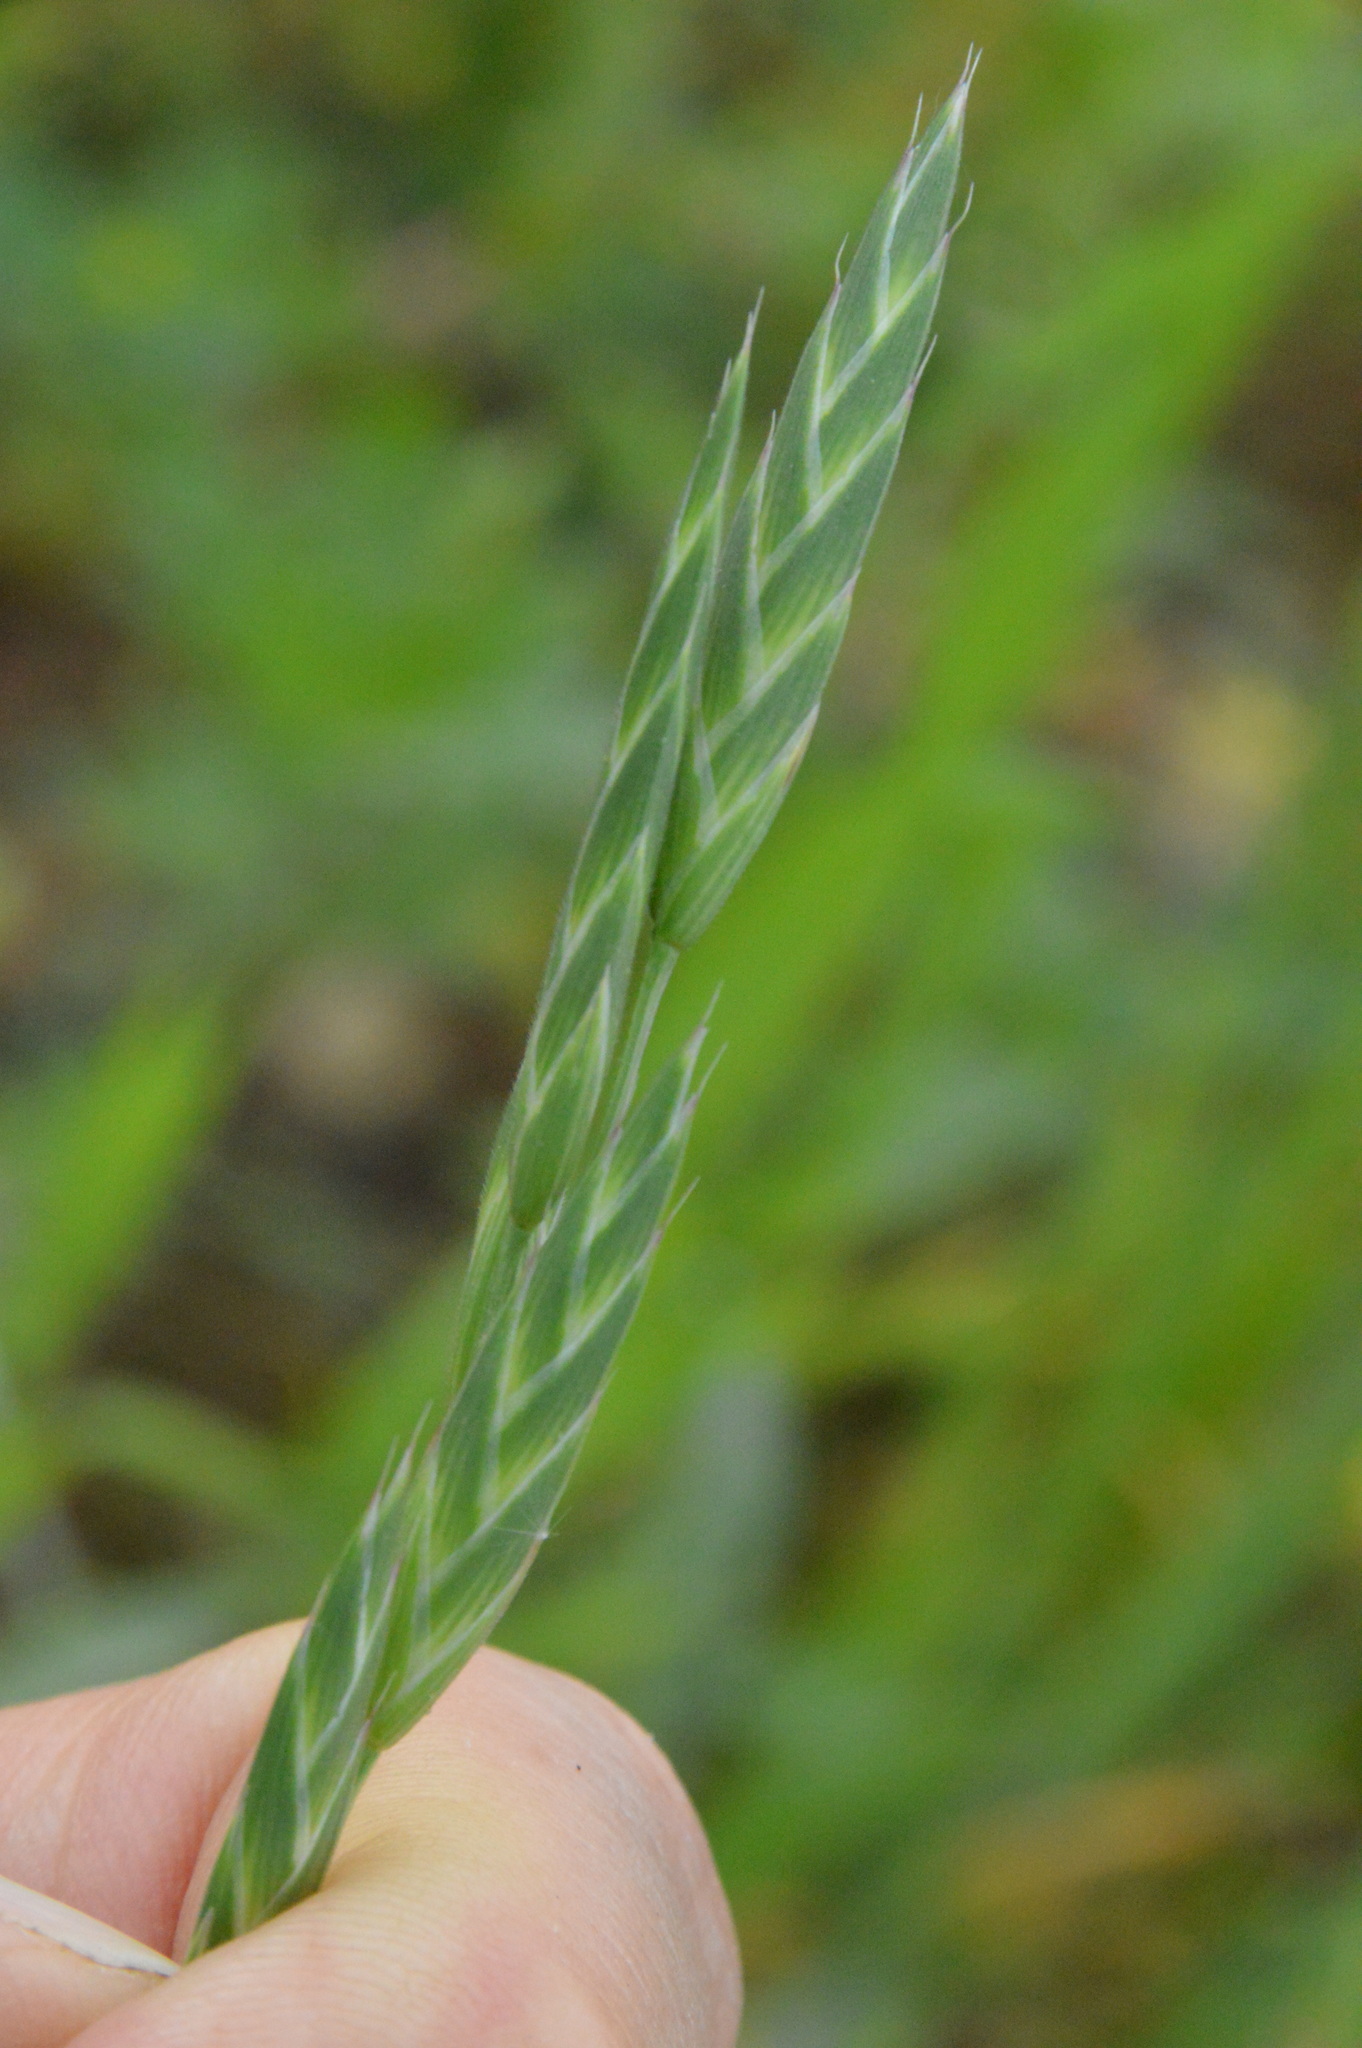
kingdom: Plantae
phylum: Tracheophyta
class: Liliopsida
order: Poales
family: Poaceae
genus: Bromus
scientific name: Bromus catharticus
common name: Rescuegrass
